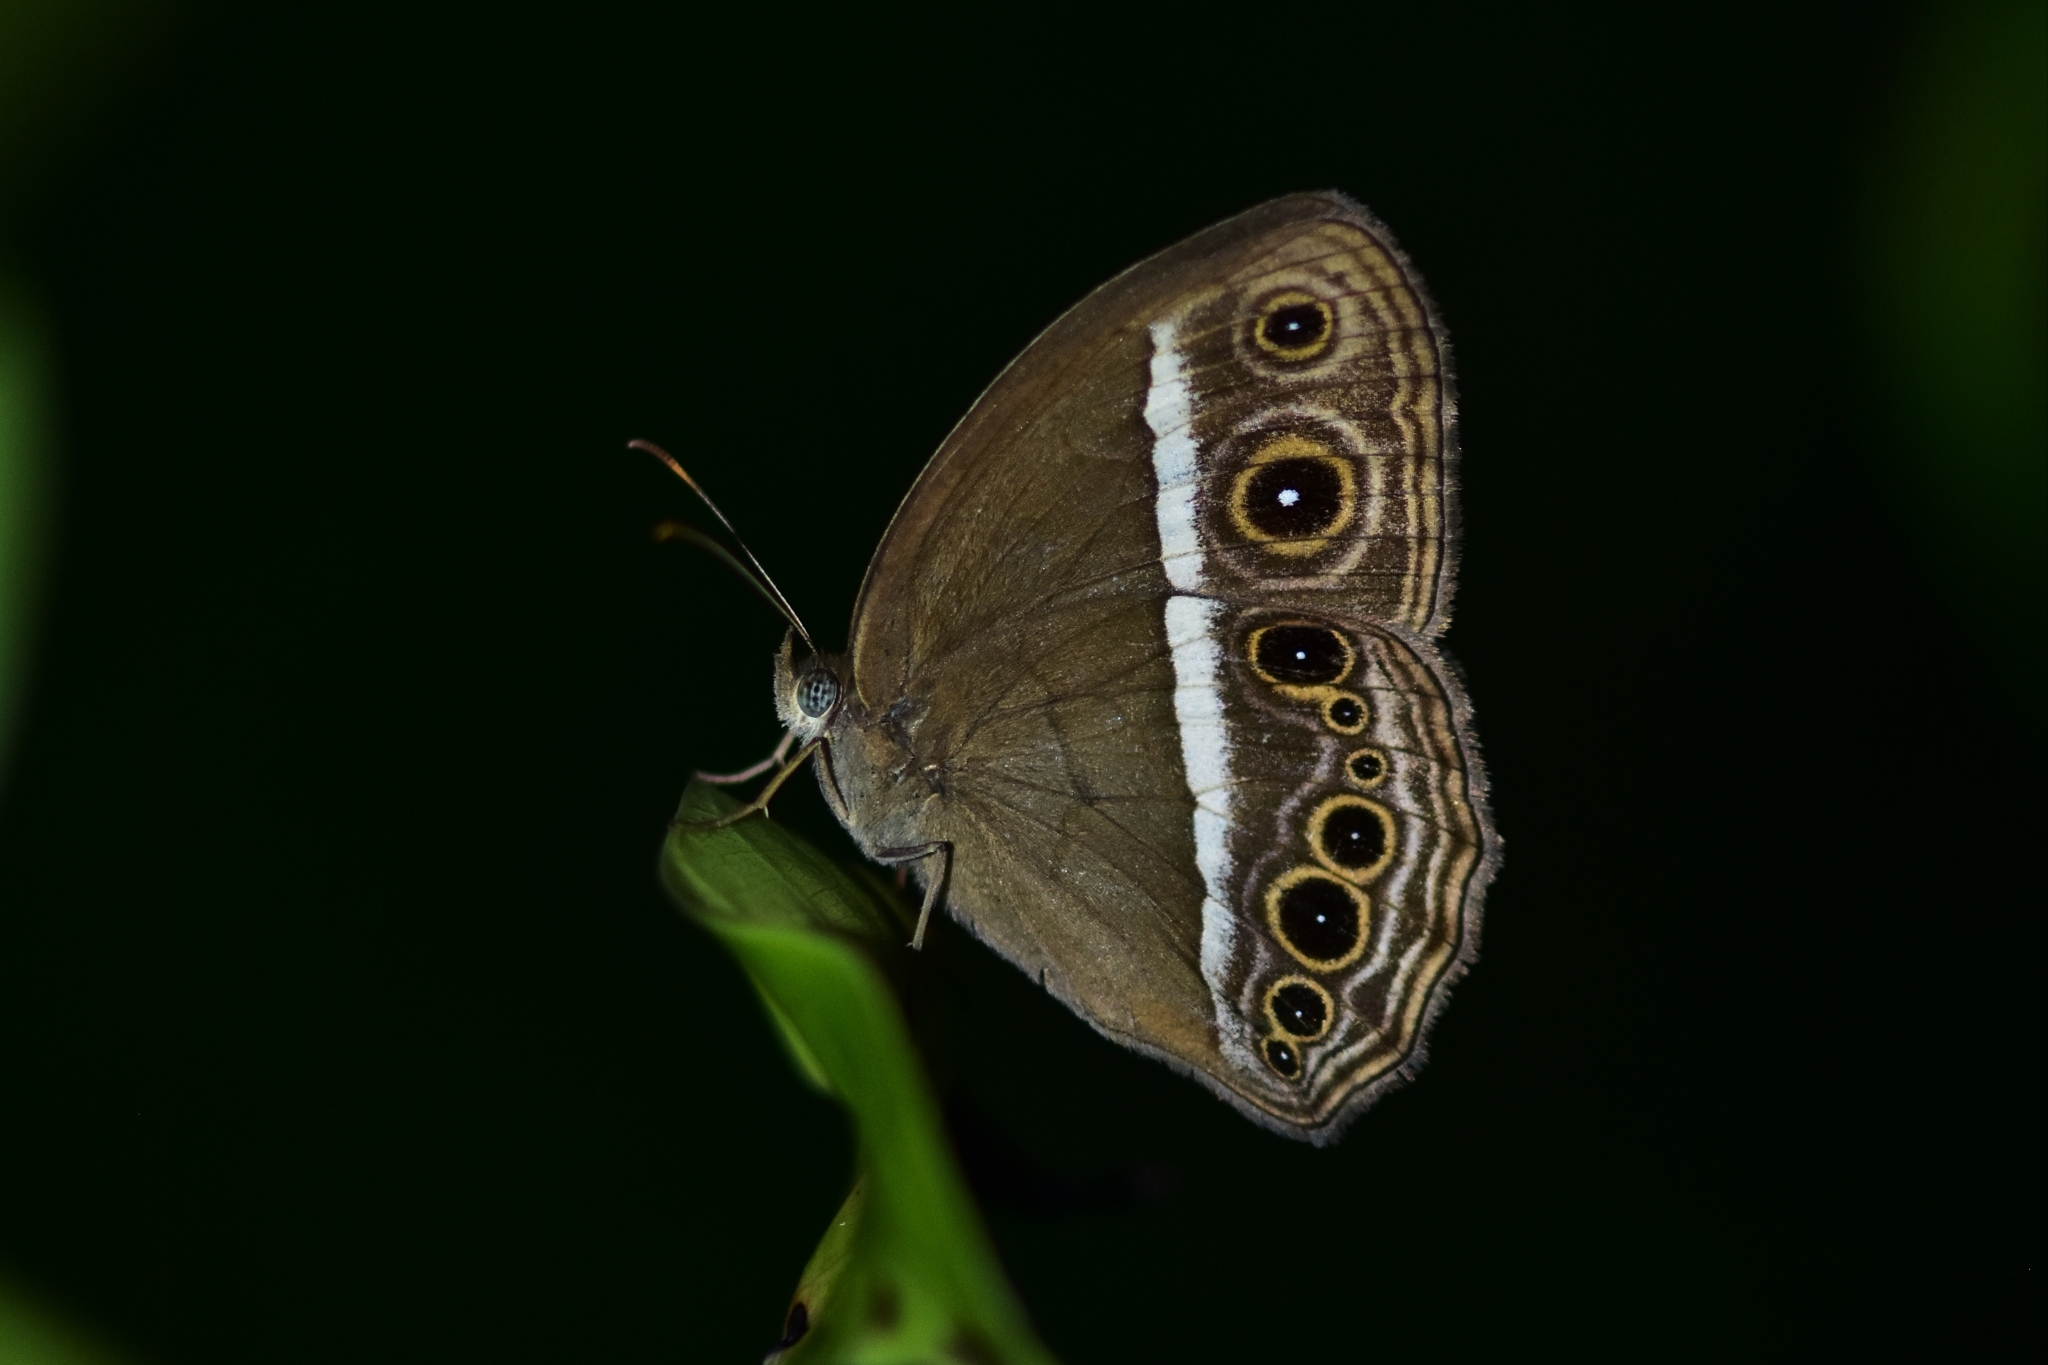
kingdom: Animalia
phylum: Arthropoda
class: Insecta
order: Lepidoptera
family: Nymphalidae
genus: Mycalesis
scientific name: Mycalesis mineus
